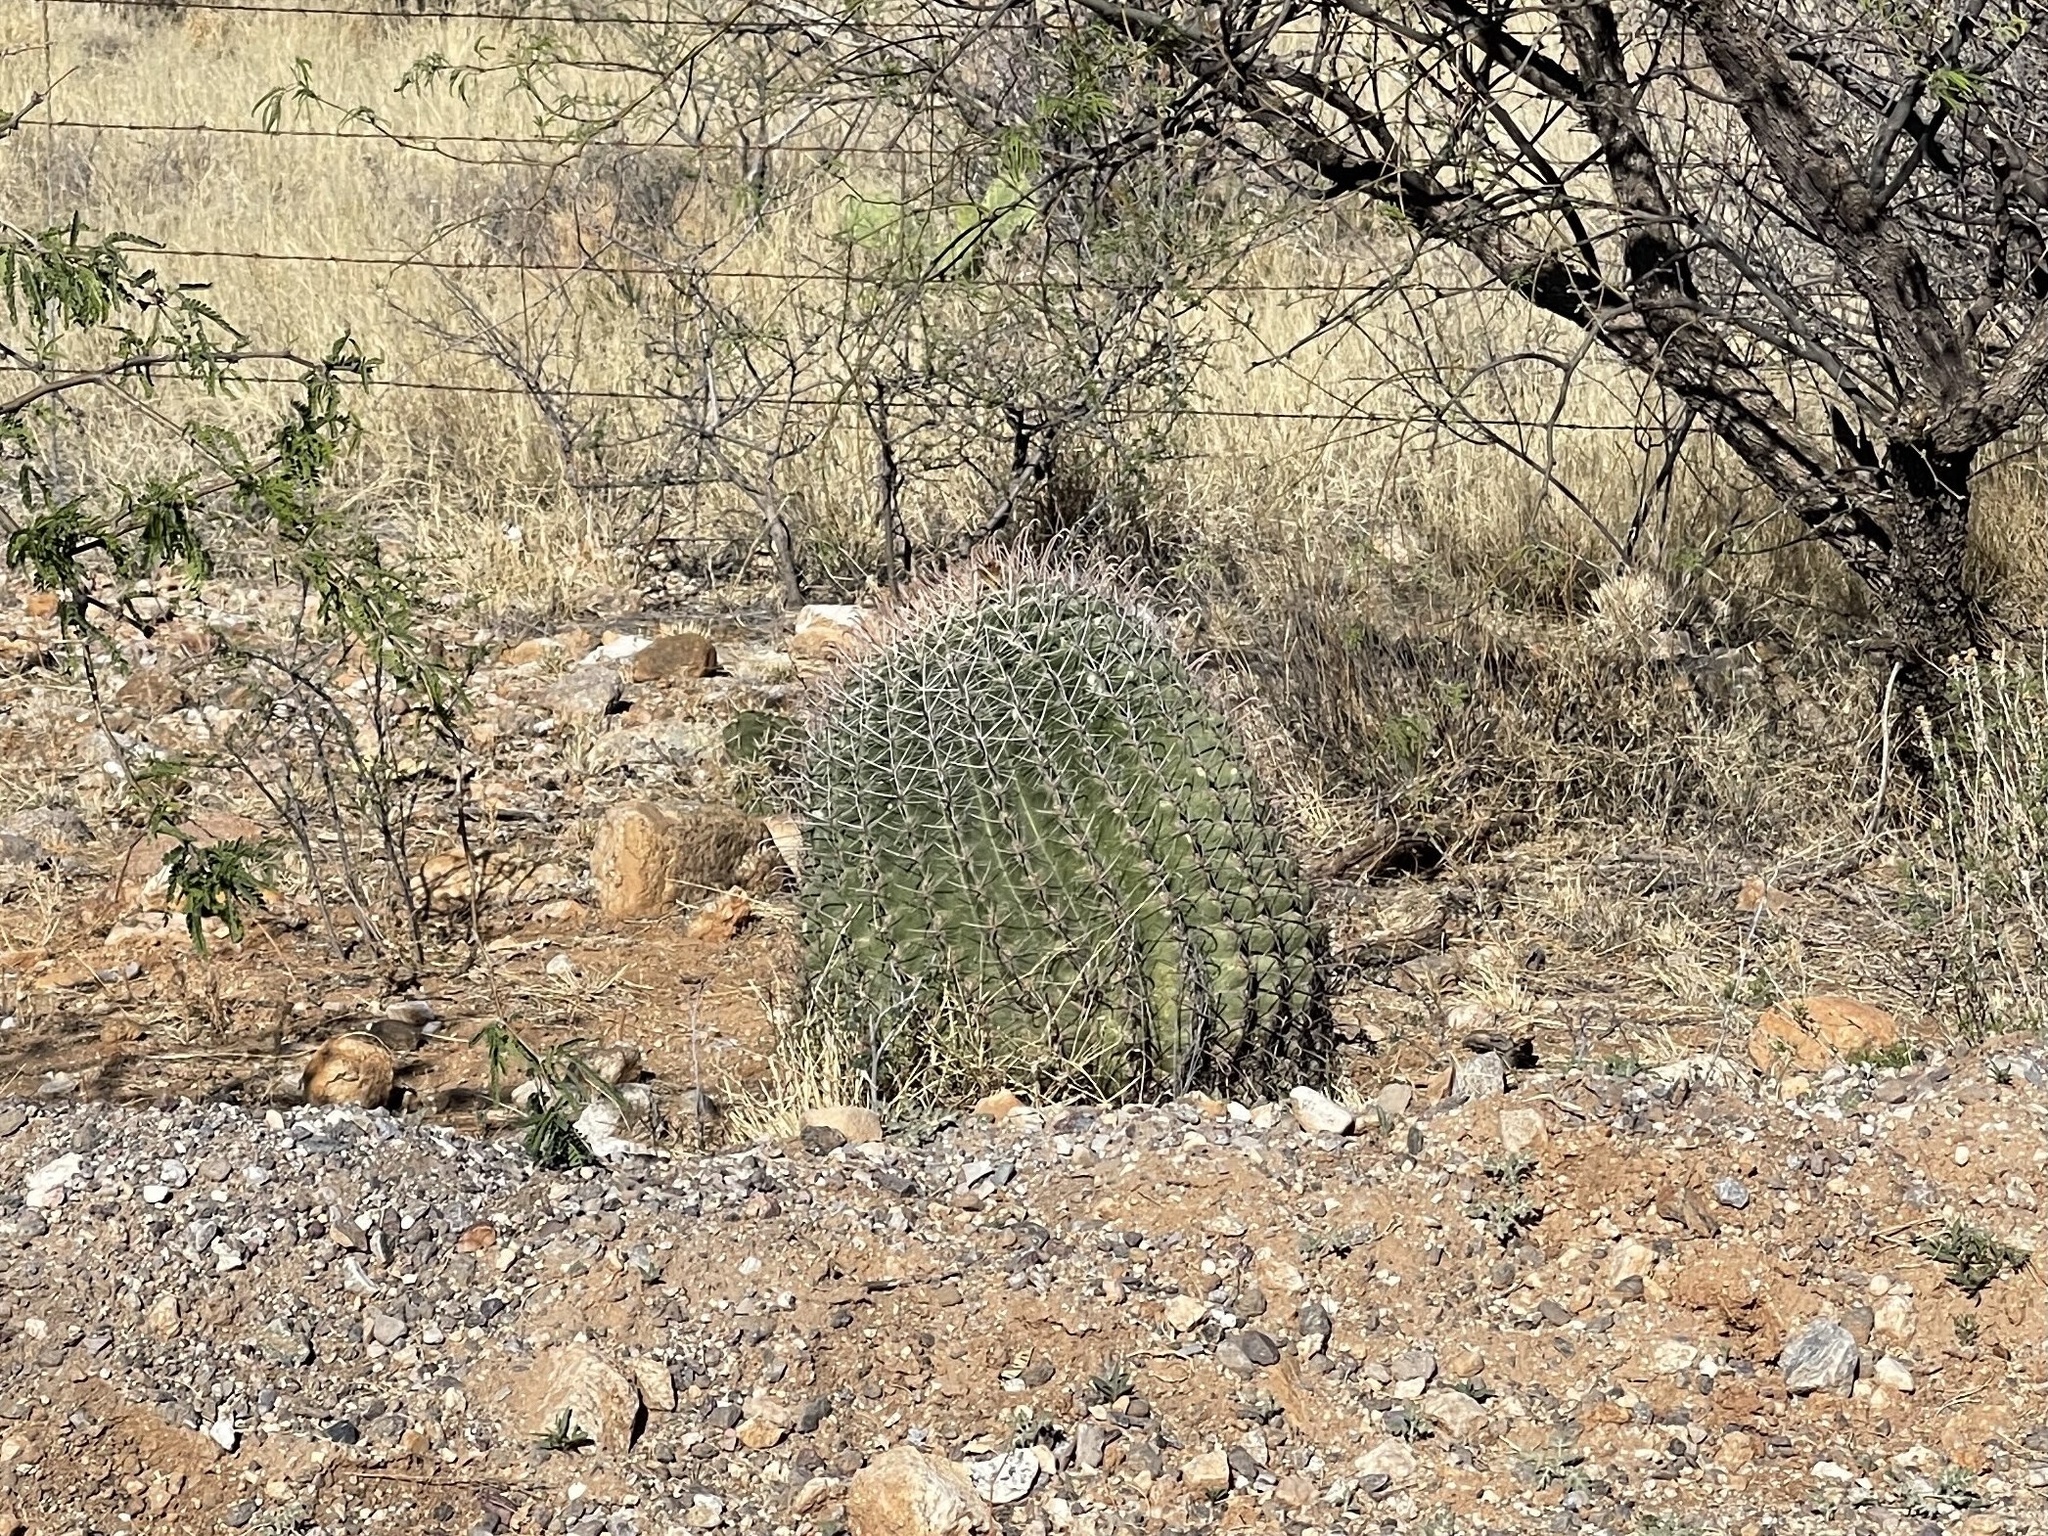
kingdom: Plantae
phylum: Tracheophyta
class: Magnoliopsida
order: Caryophyllales
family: Cactaceae
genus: Ferocactus
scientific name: Ferocactus wislizeni
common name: Candy barrel cactus
